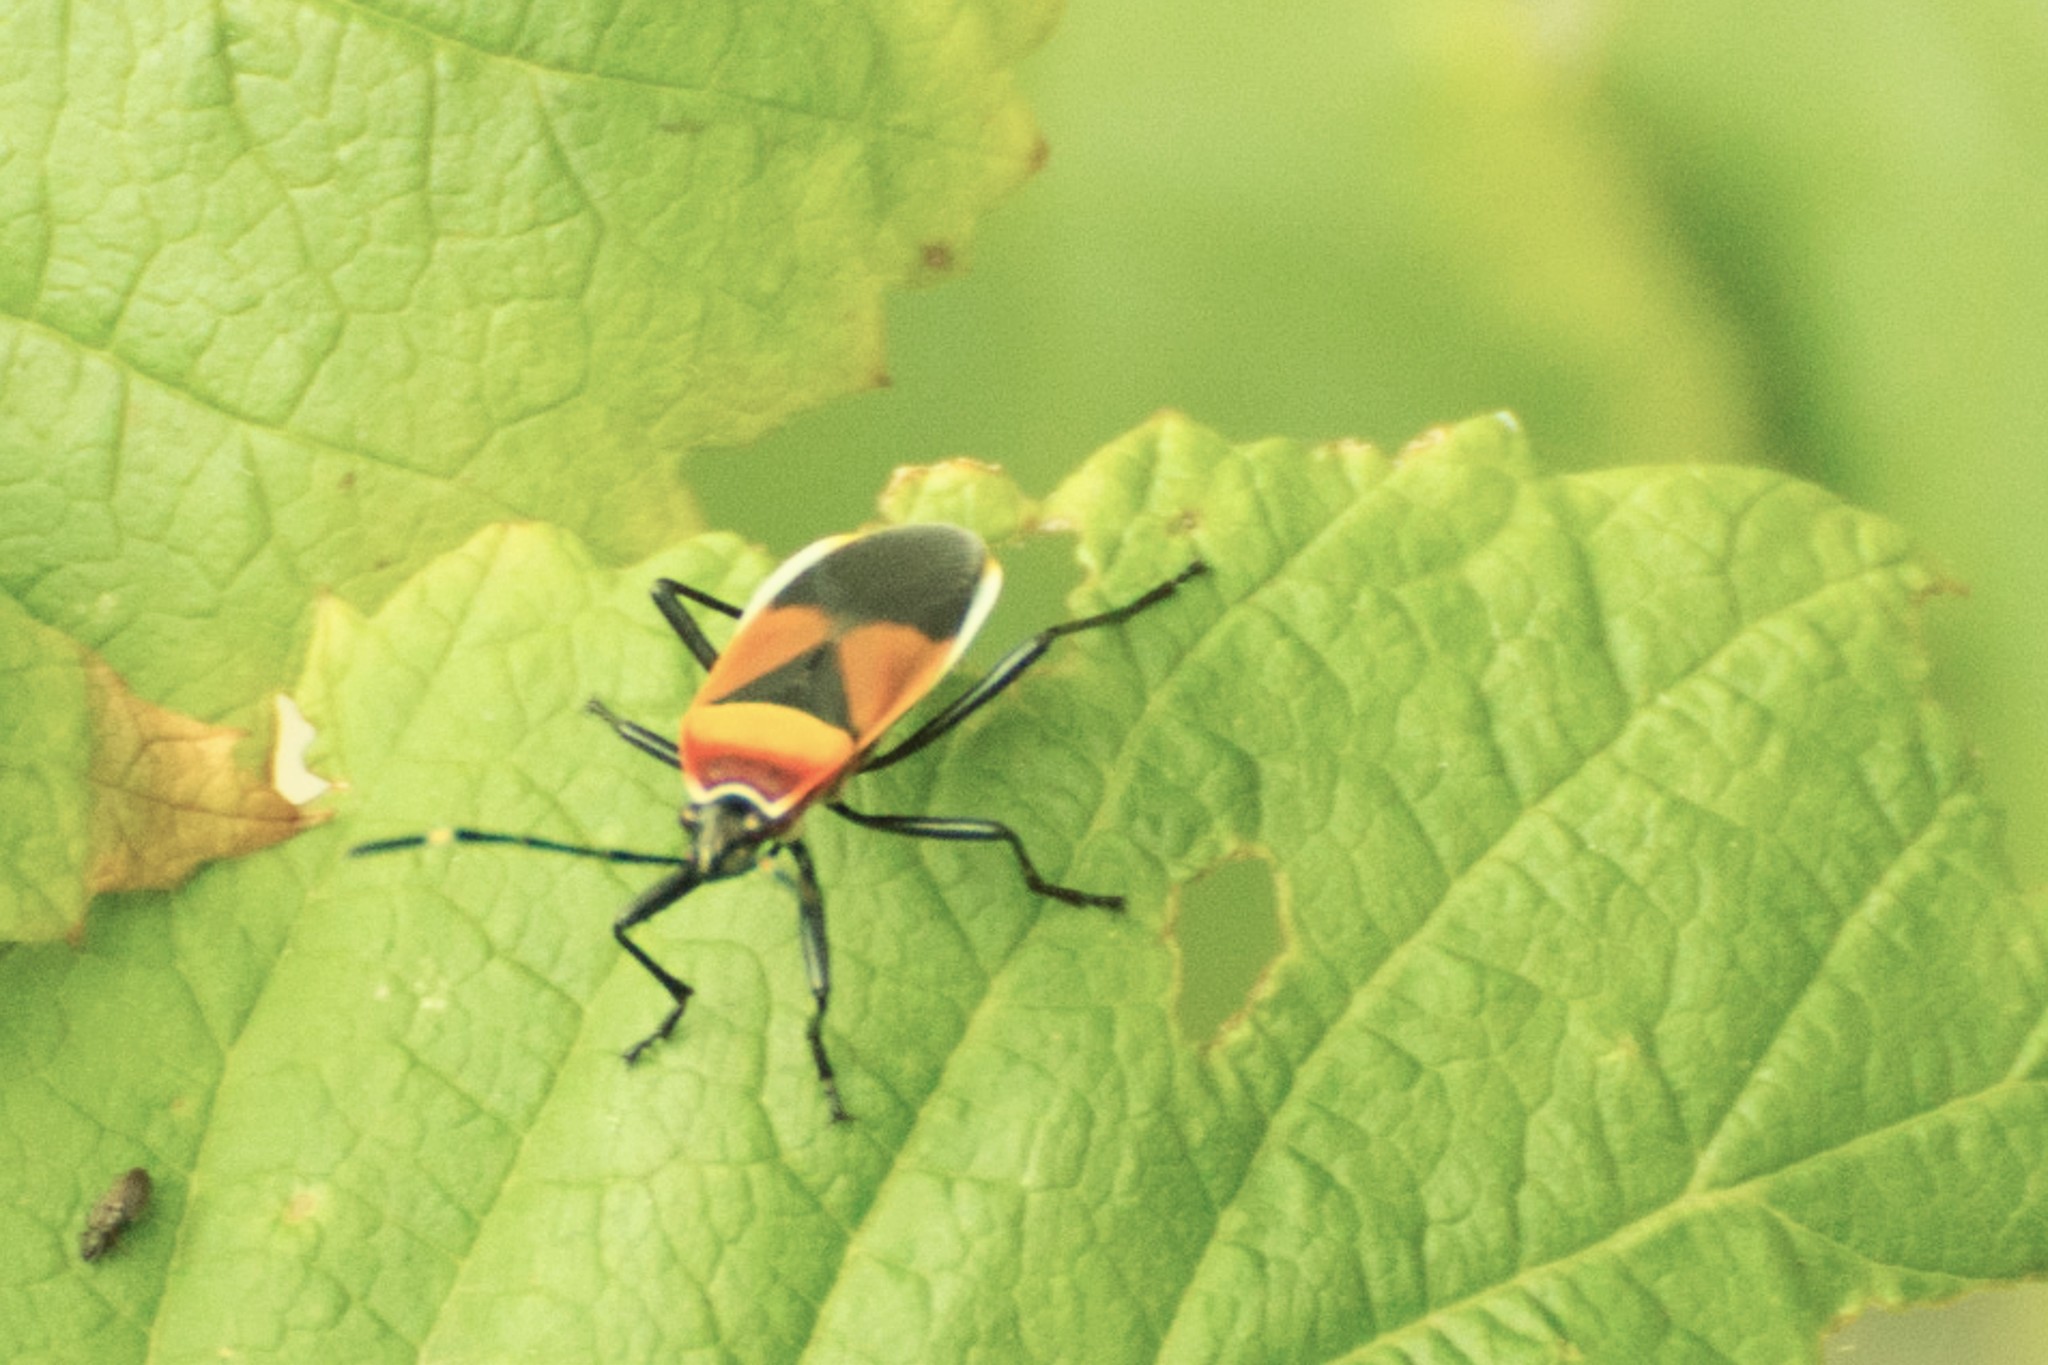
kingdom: Animalia
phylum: Arthropoda
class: Insecta
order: Hemiptera
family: Pyrrhocoridae
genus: Dindymus
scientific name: Dindymus
